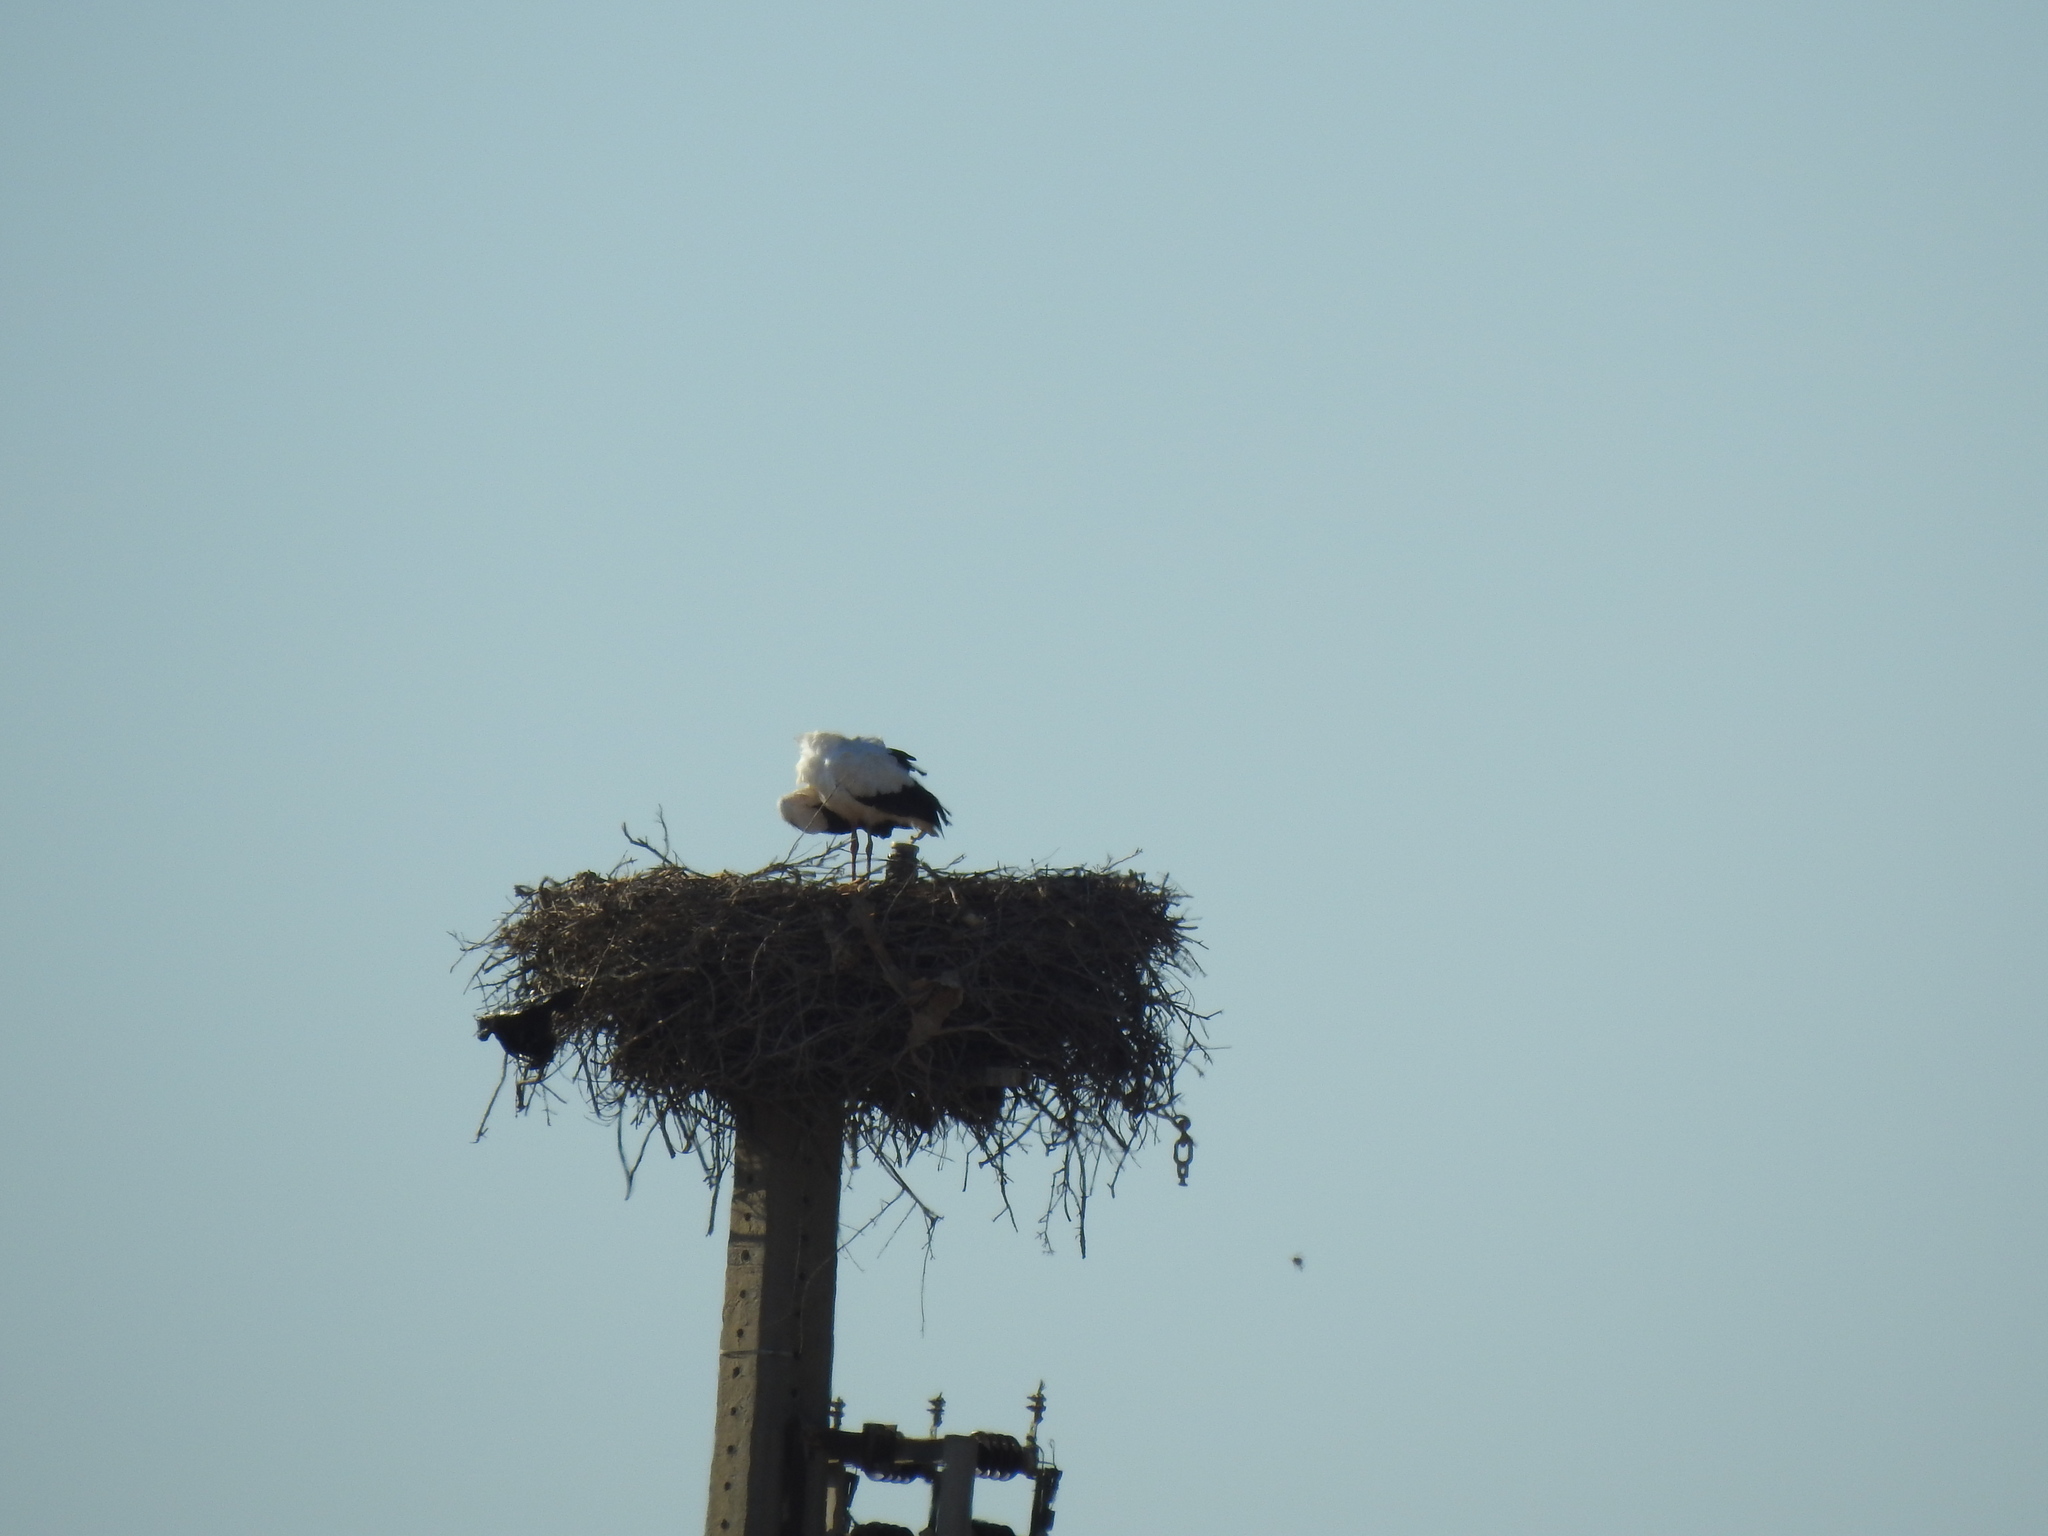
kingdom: Animalia
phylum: Chordata
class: Aves
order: Ciconiiformes
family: Ciconiidae
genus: Ciconia
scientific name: Ciconia ciconia
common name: White stork
